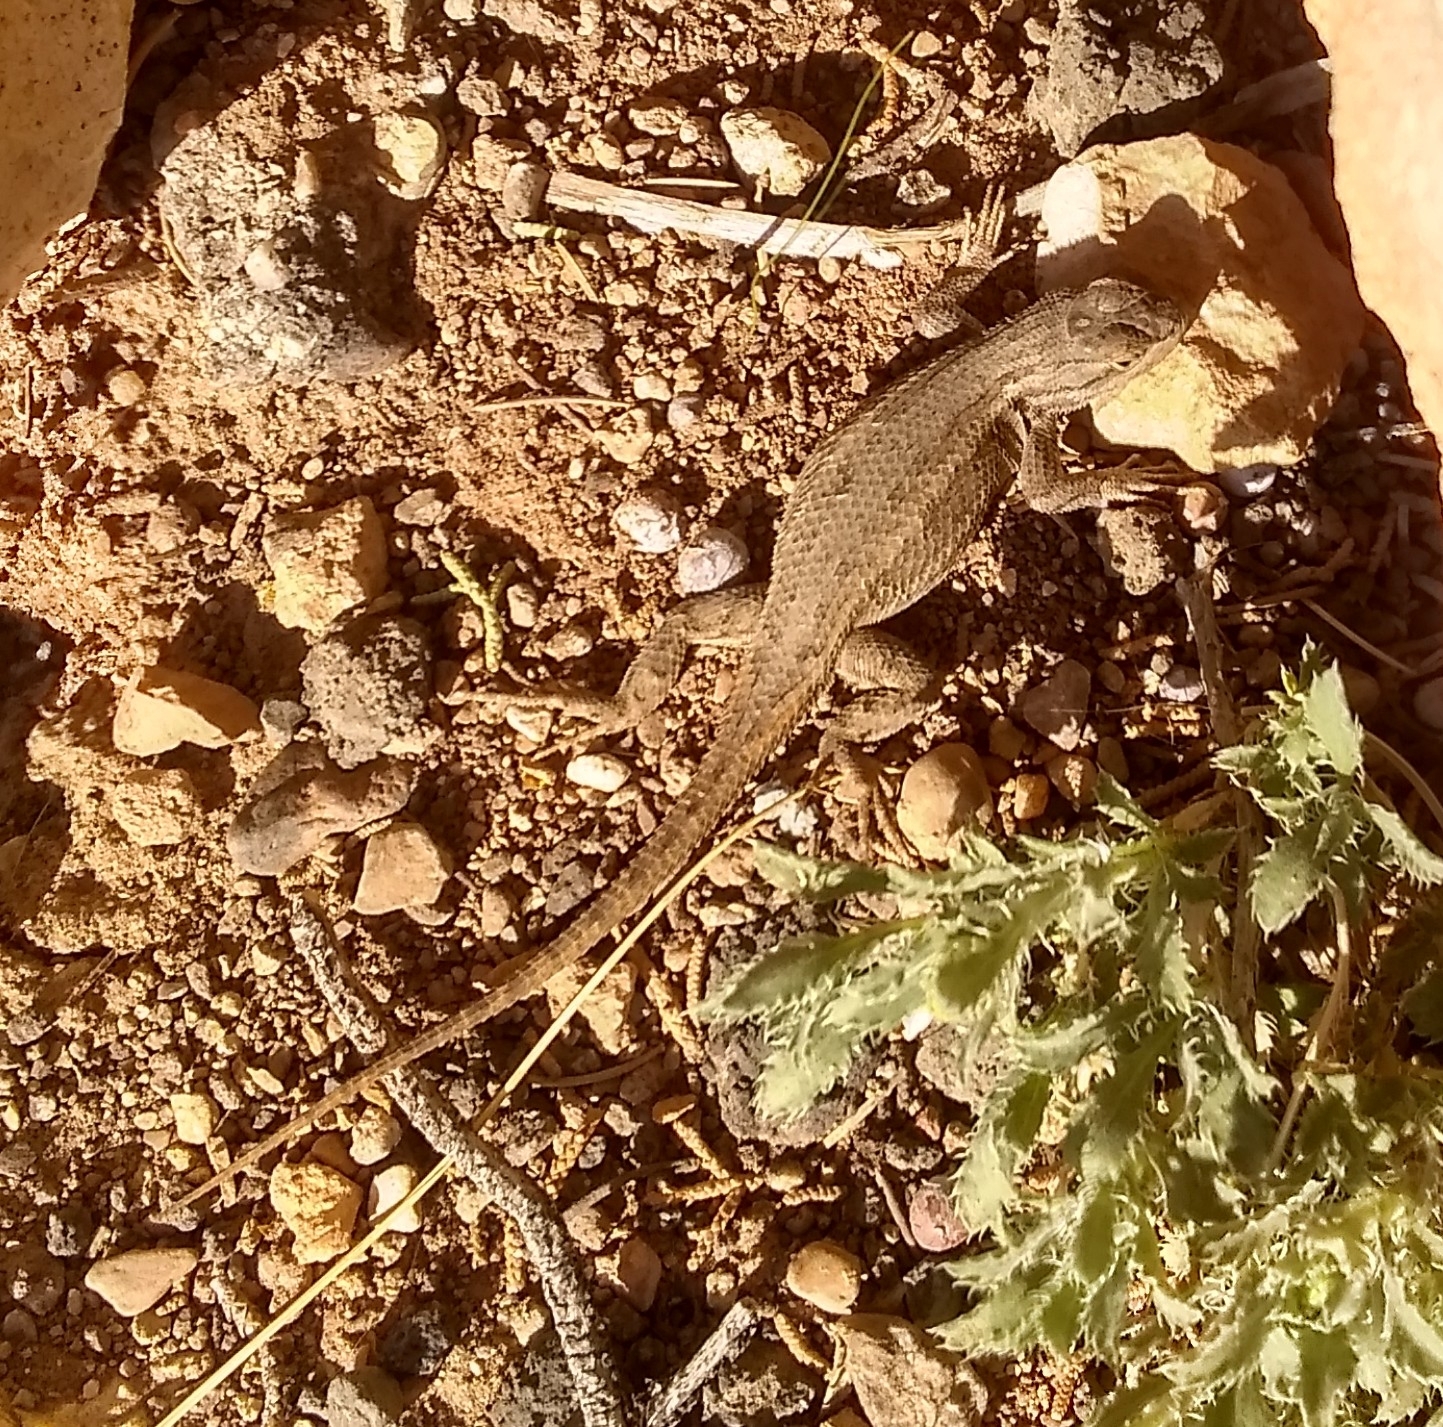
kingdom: Animalia
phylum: Chordata
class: Squamata
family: Phrynosomatidae
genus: Sceloporus
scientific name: Sceloporus tristichus
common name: Plateau fence lizard
